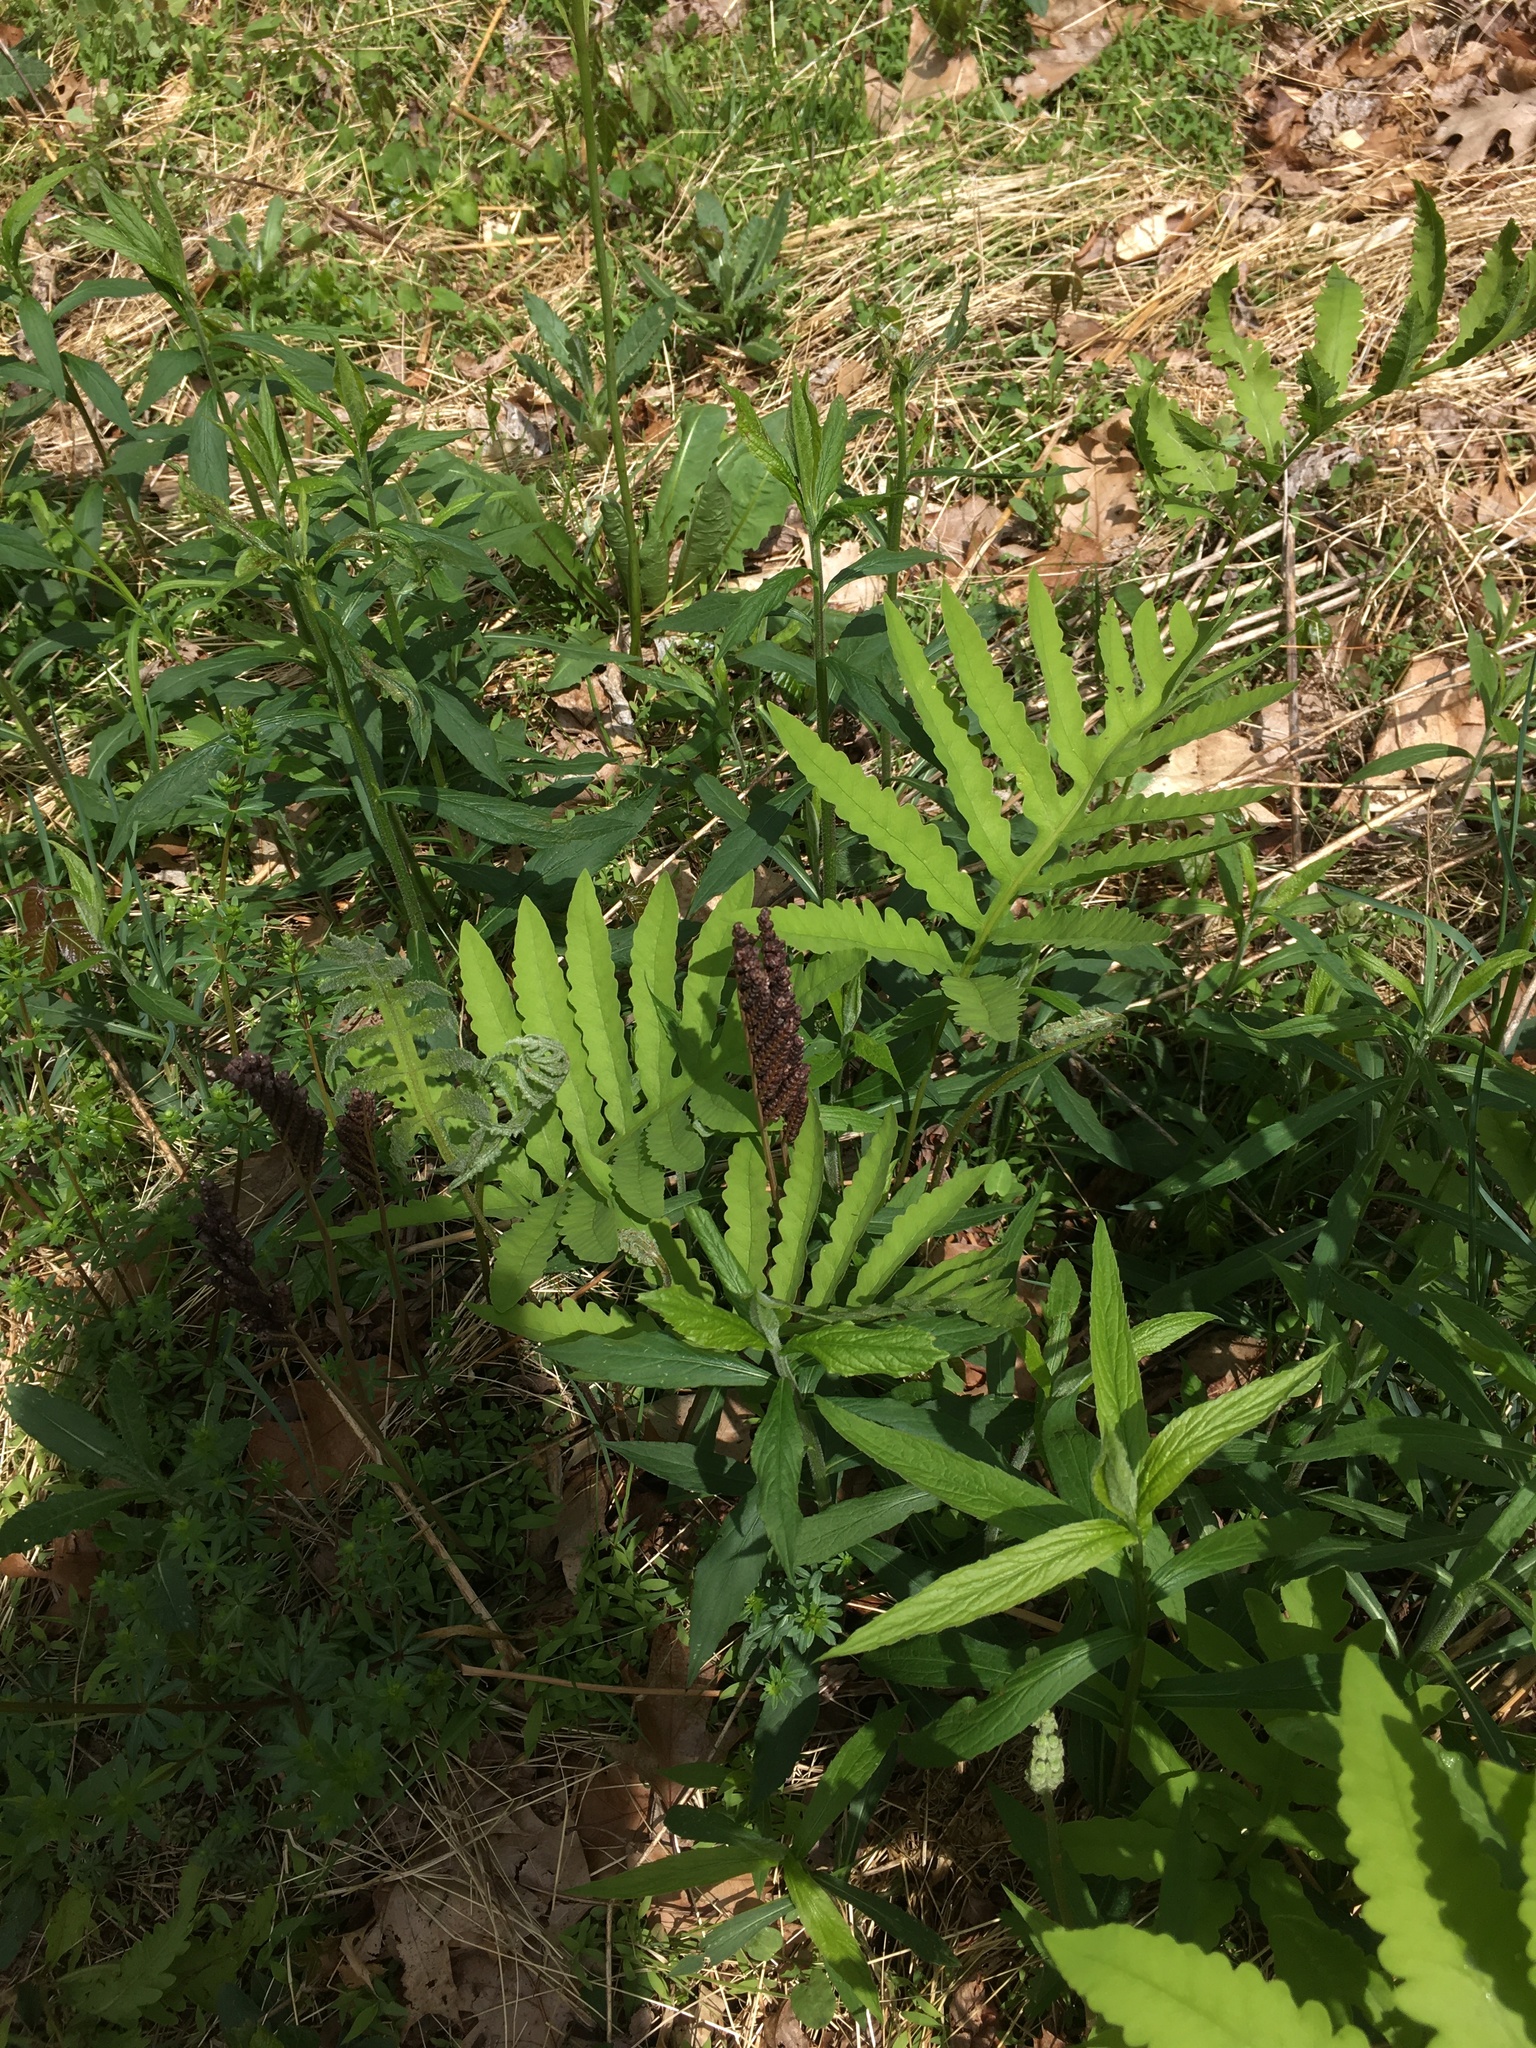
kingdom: Plantae
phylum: Tracheophyta
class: Polypodiopsida
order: Polypodiales
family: Onocleaceae
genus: Onoclea
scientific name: Onoclea sensibilis
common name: Sensitive fern
